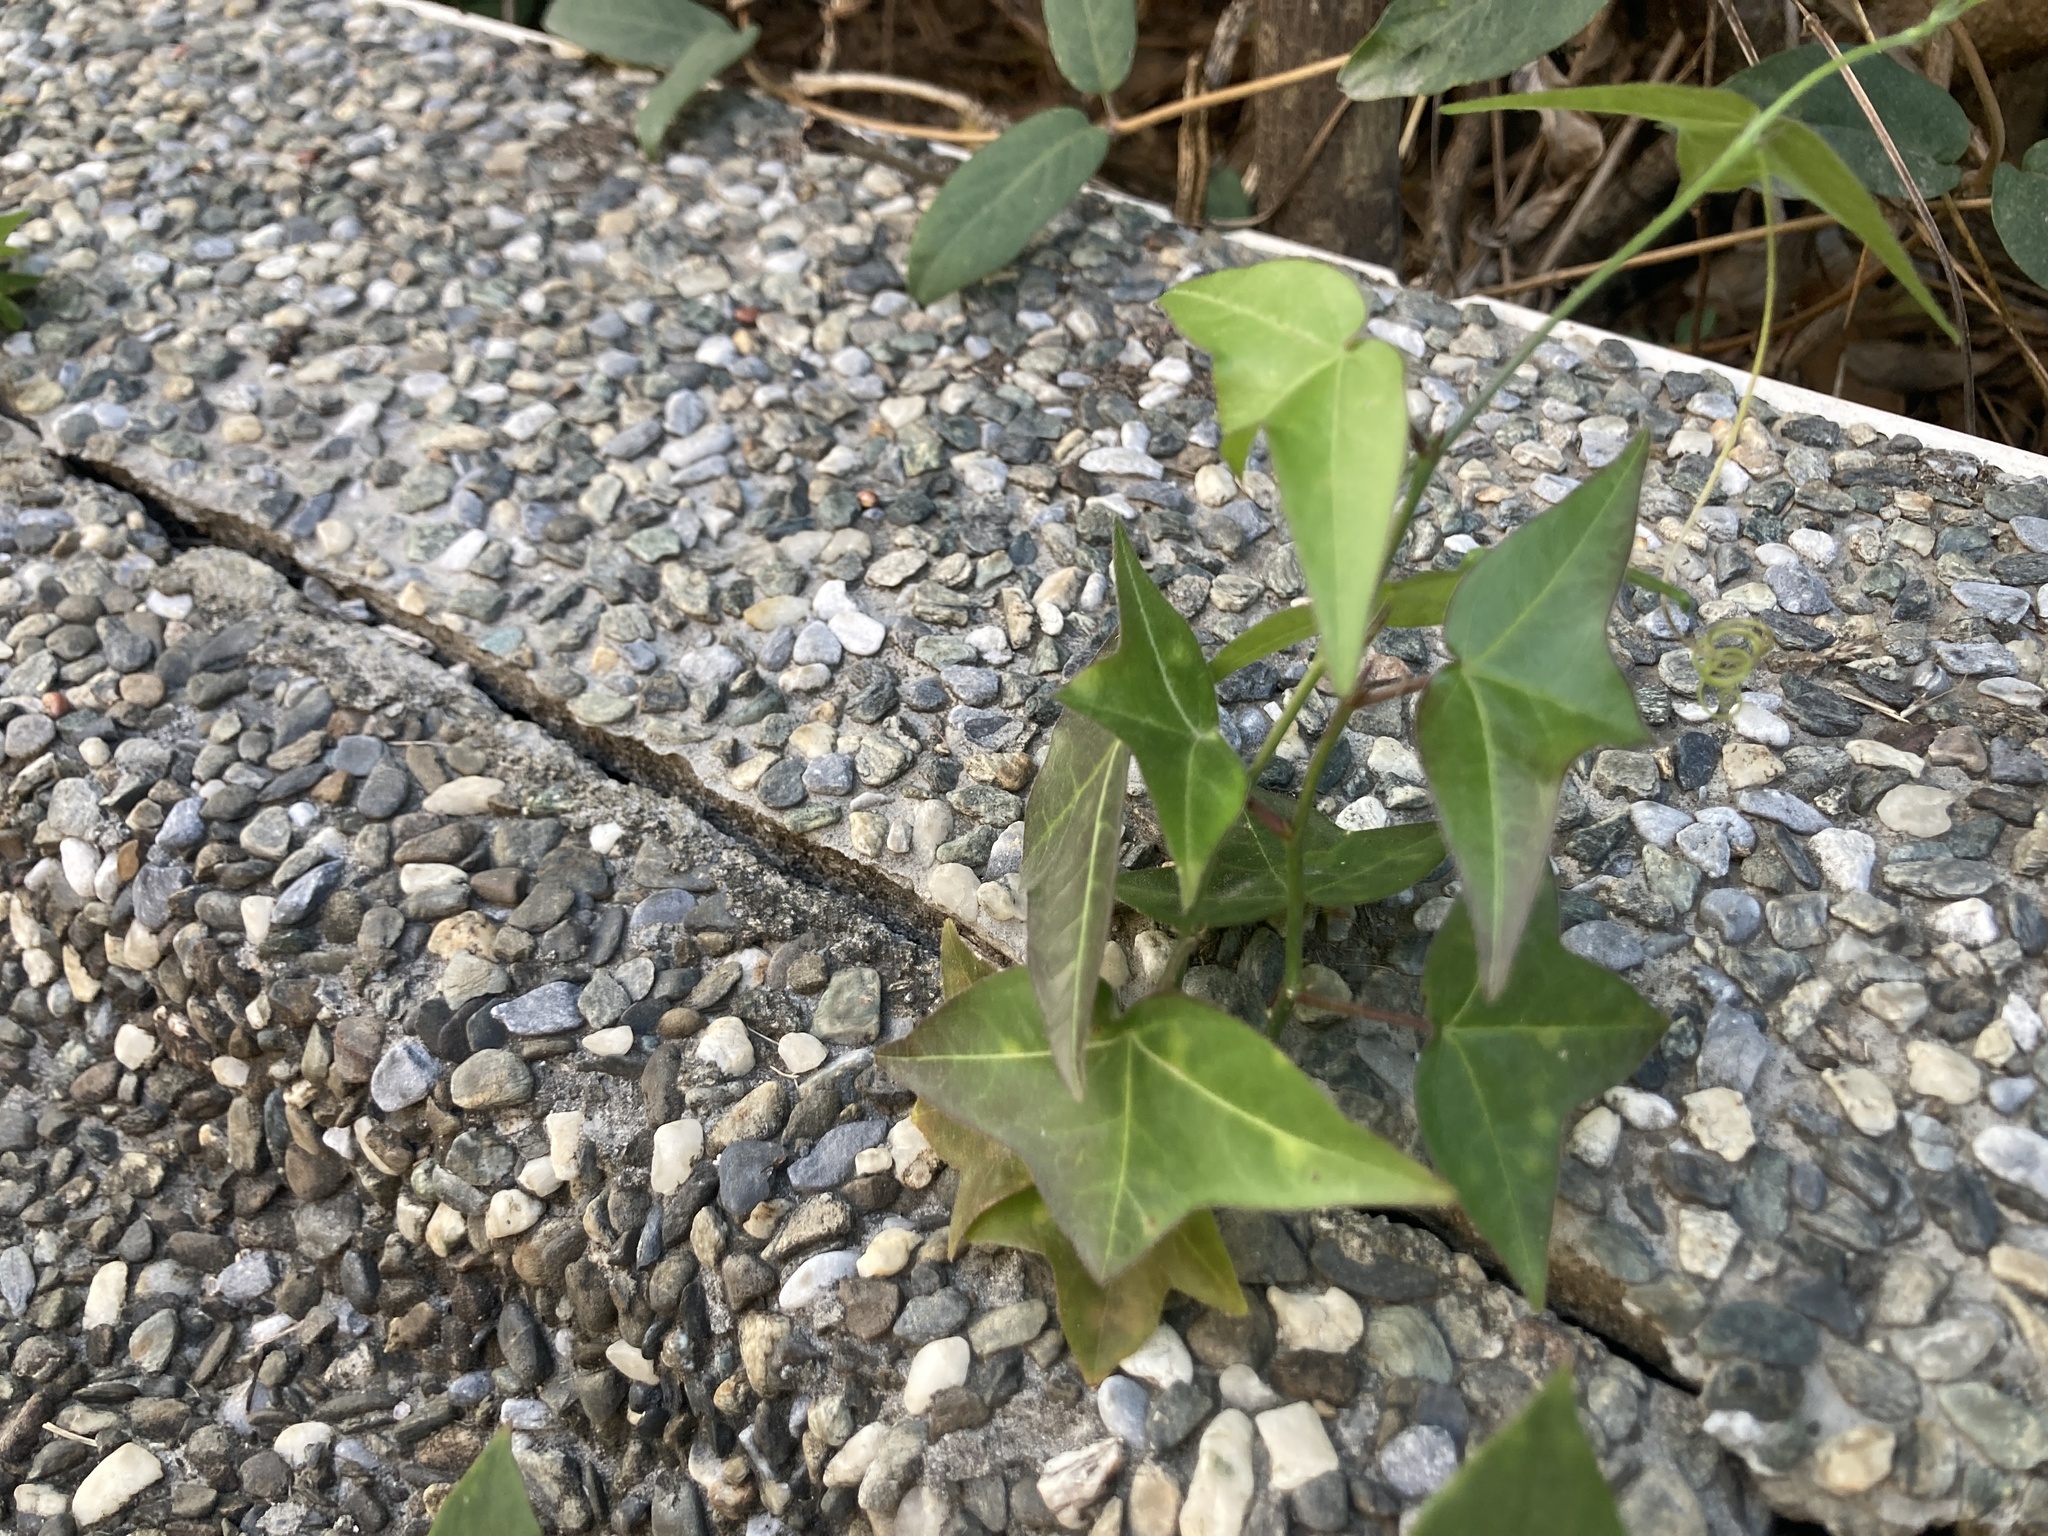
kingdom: Plantae
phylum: Tracheophyta
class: Magnoliopsida
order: Malpighiales
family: Passifloraceae
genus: Passiflora
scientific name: Passiflora suberosa
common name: Wild passionfruit
